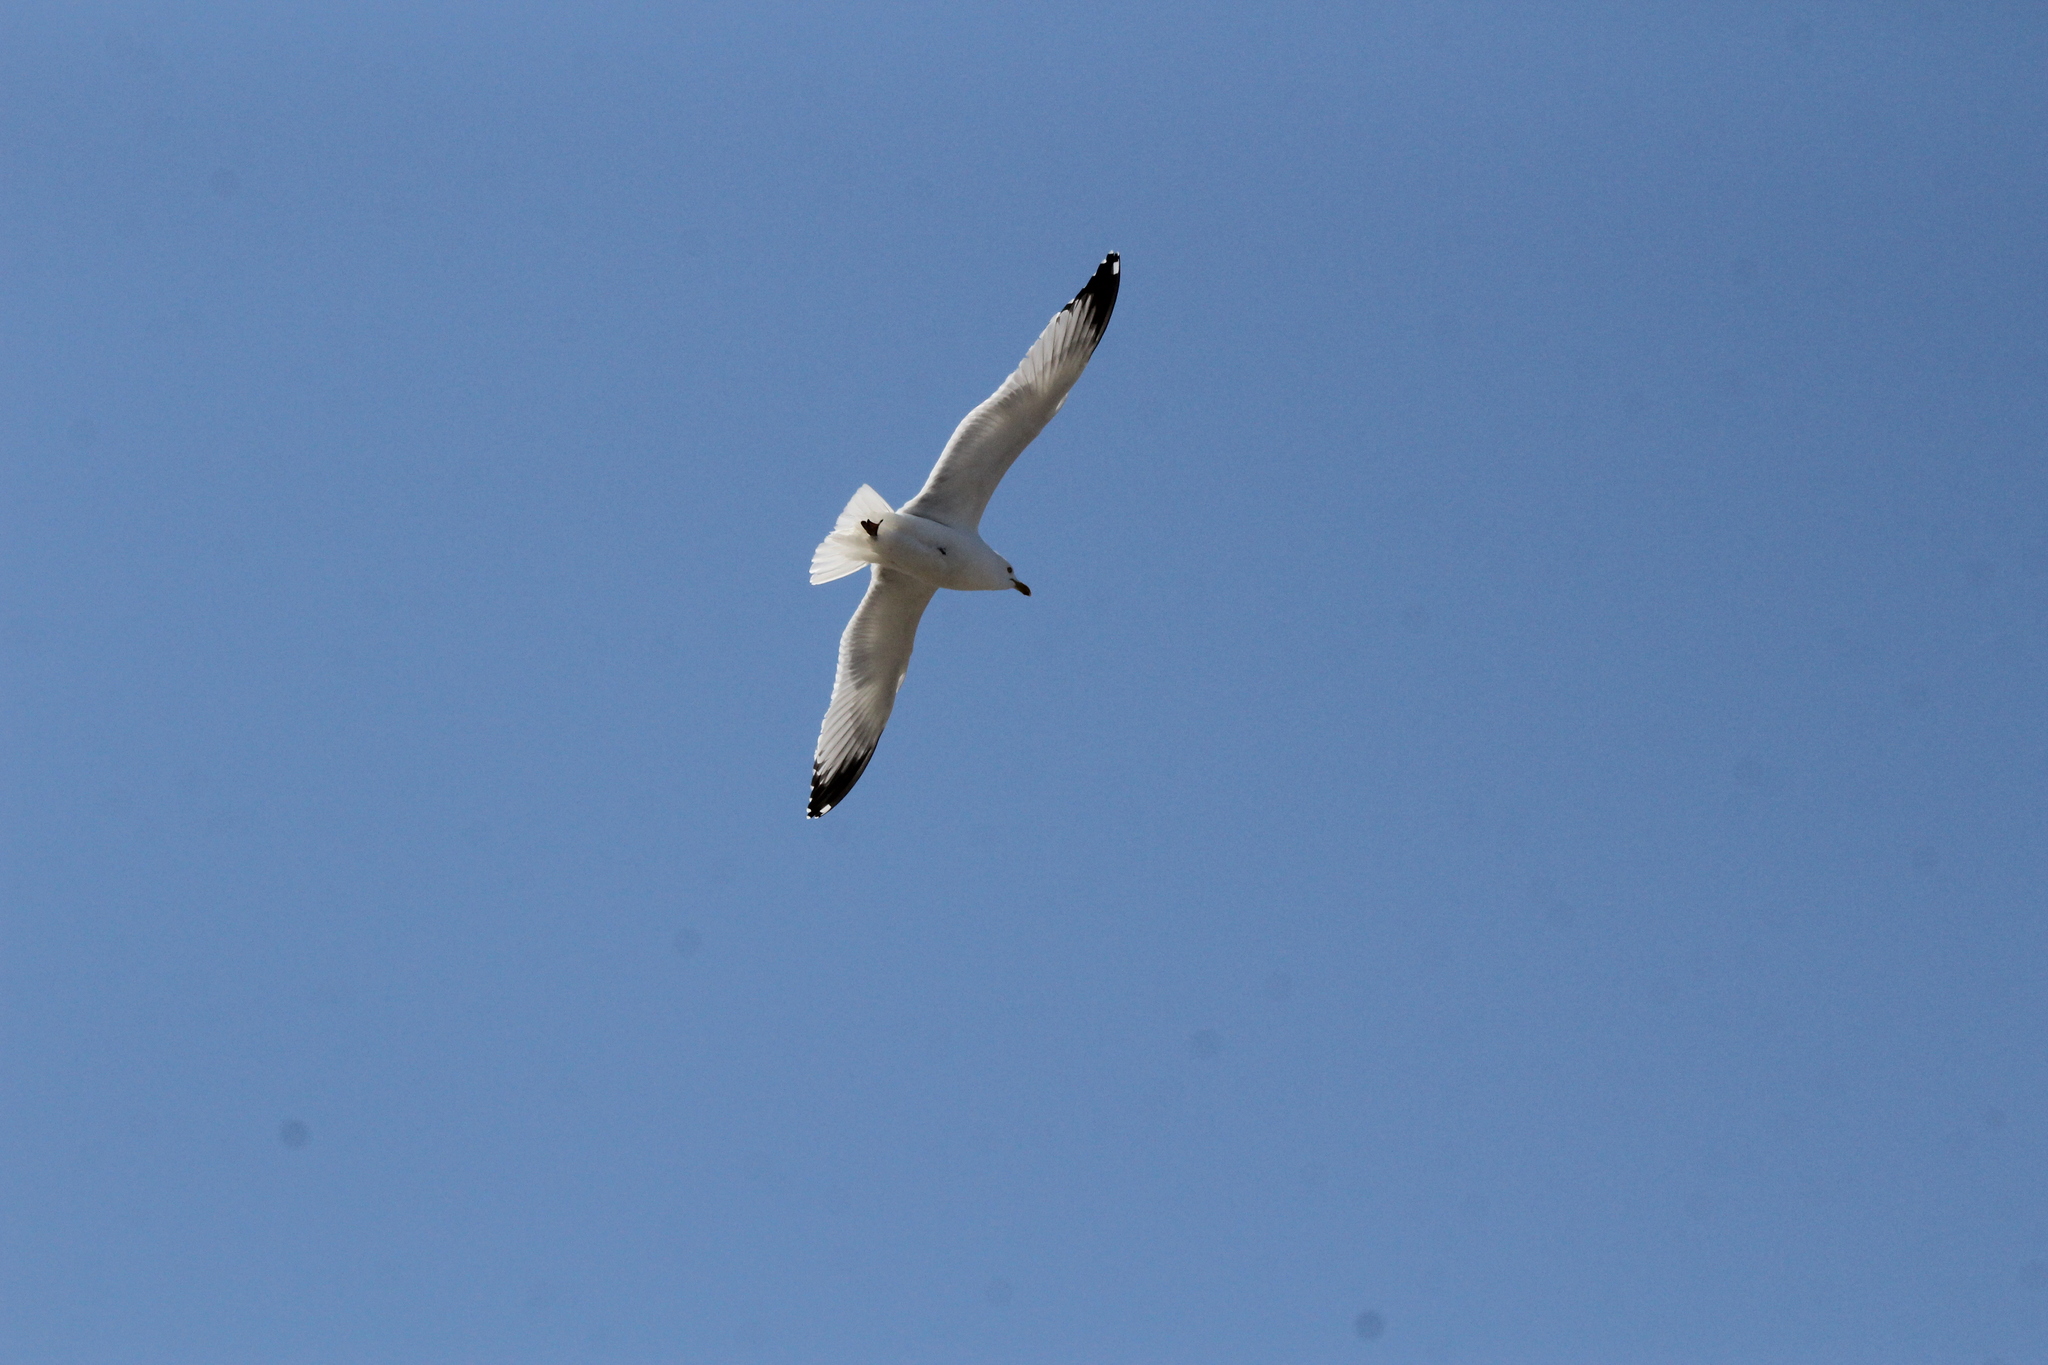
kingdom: Animalia
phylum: Chordata
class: Aves
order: Charadriiformes
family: Laridae
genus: Larus
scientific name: Larus delawarensis
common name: Ring-billed gull
